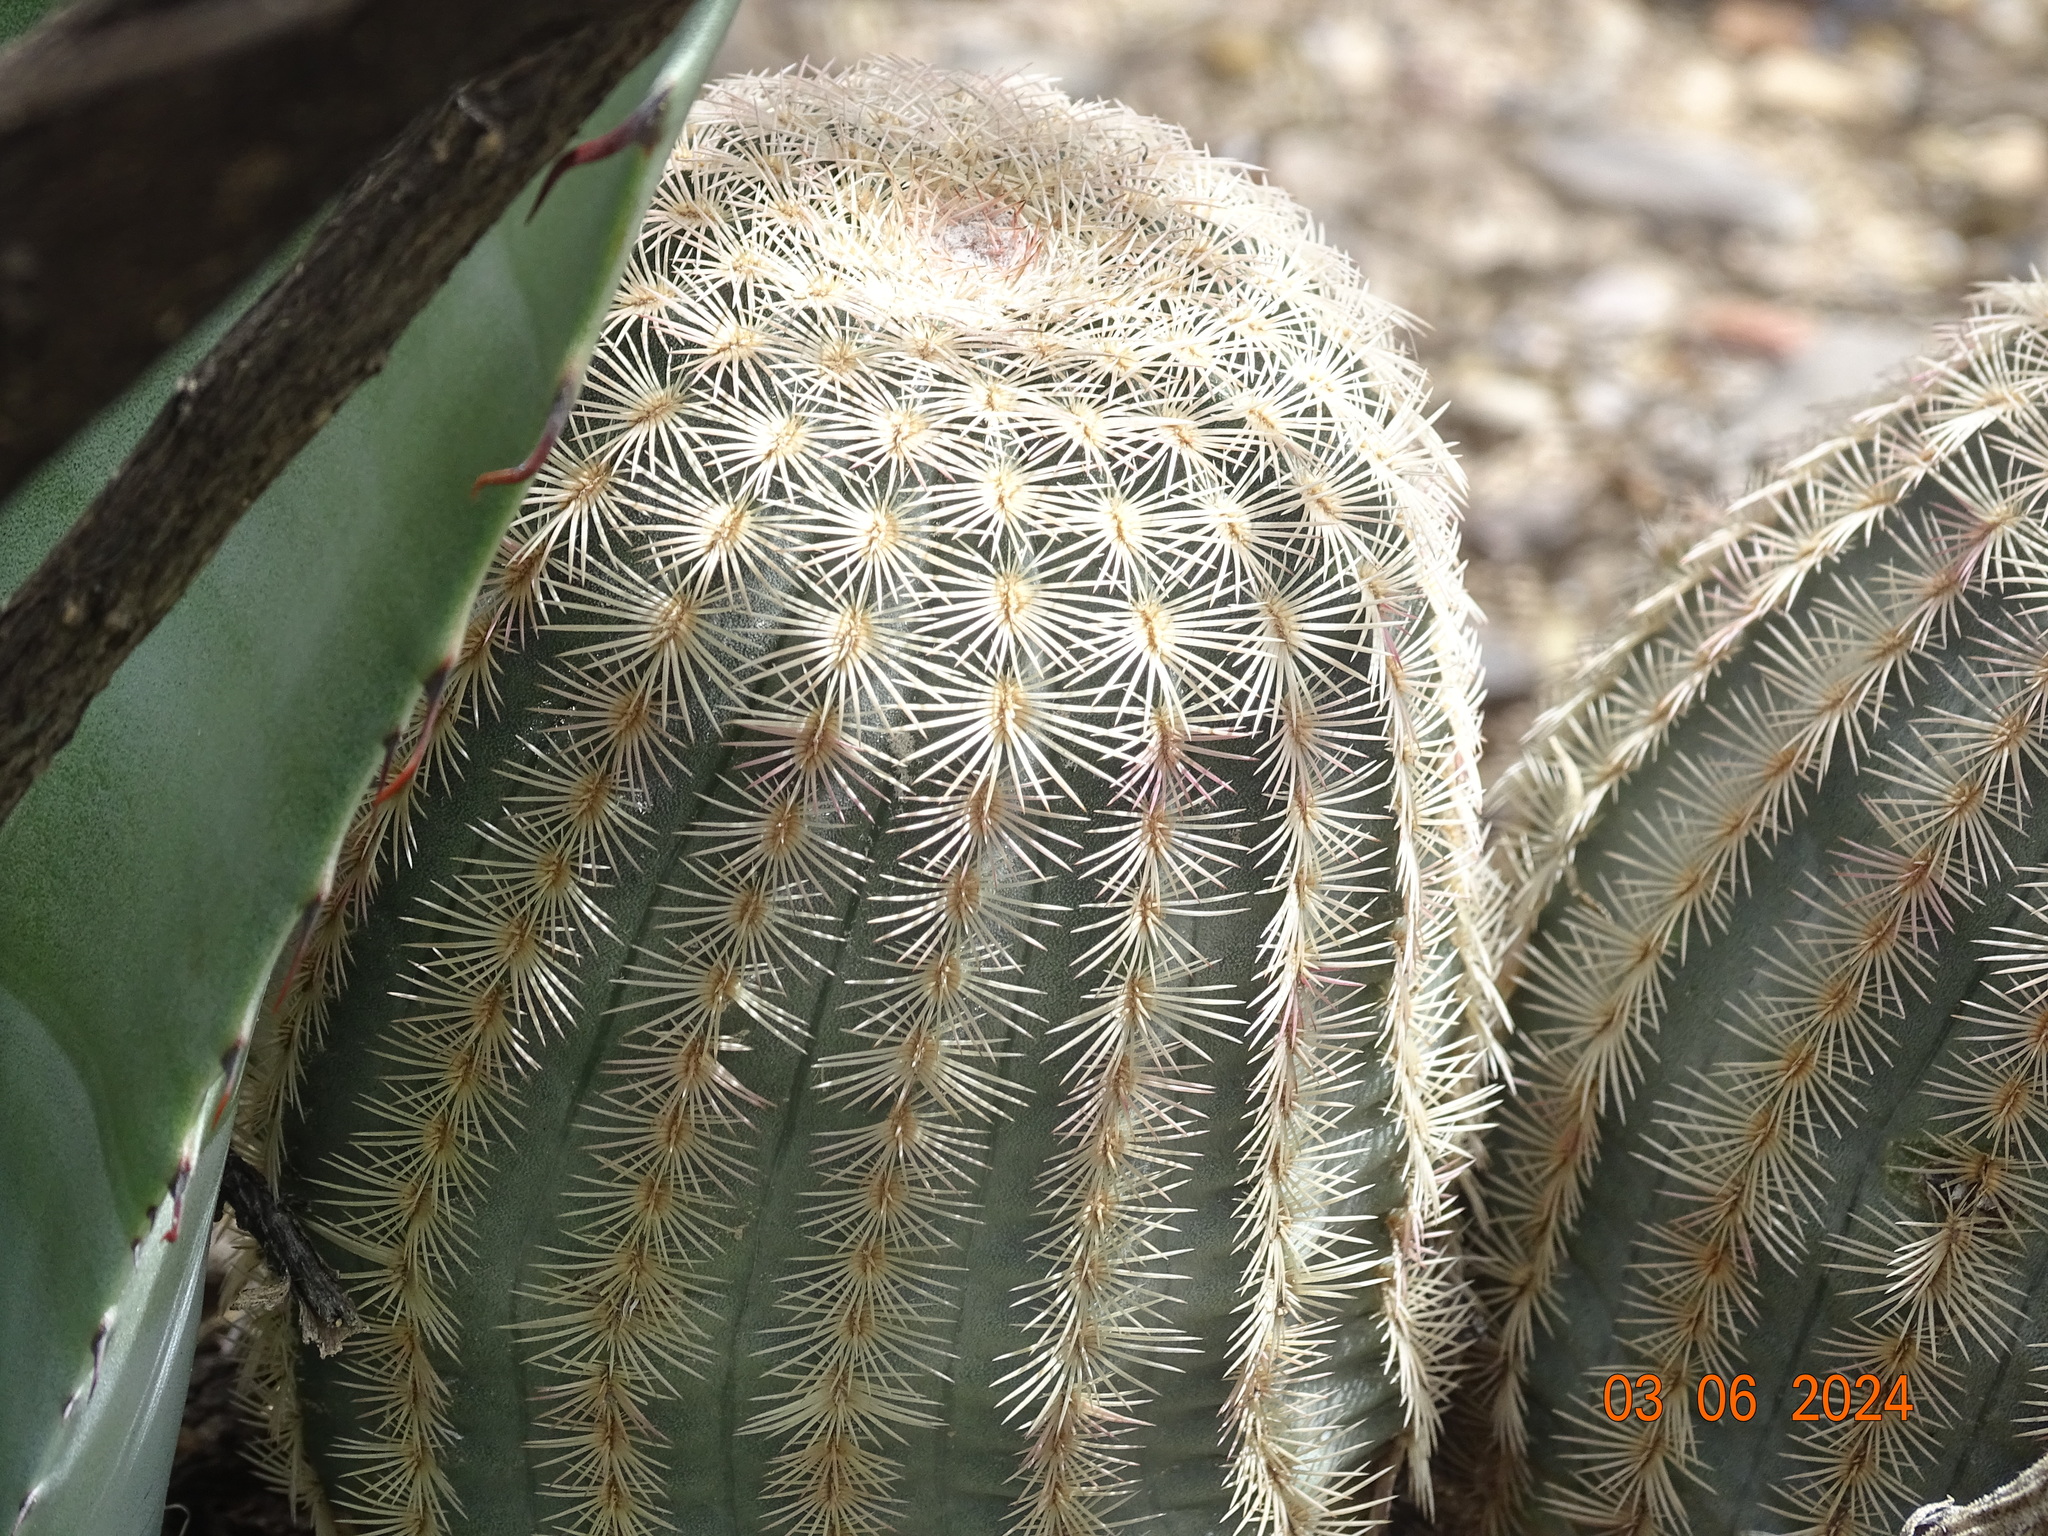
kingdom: Plantae
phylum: Tracheophyta
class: Magnoliopsida
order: Caryophyllales
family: Cactaceae
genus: Echinocereus
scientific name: Echinocereus pectinatus
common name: Rainbow cactus
